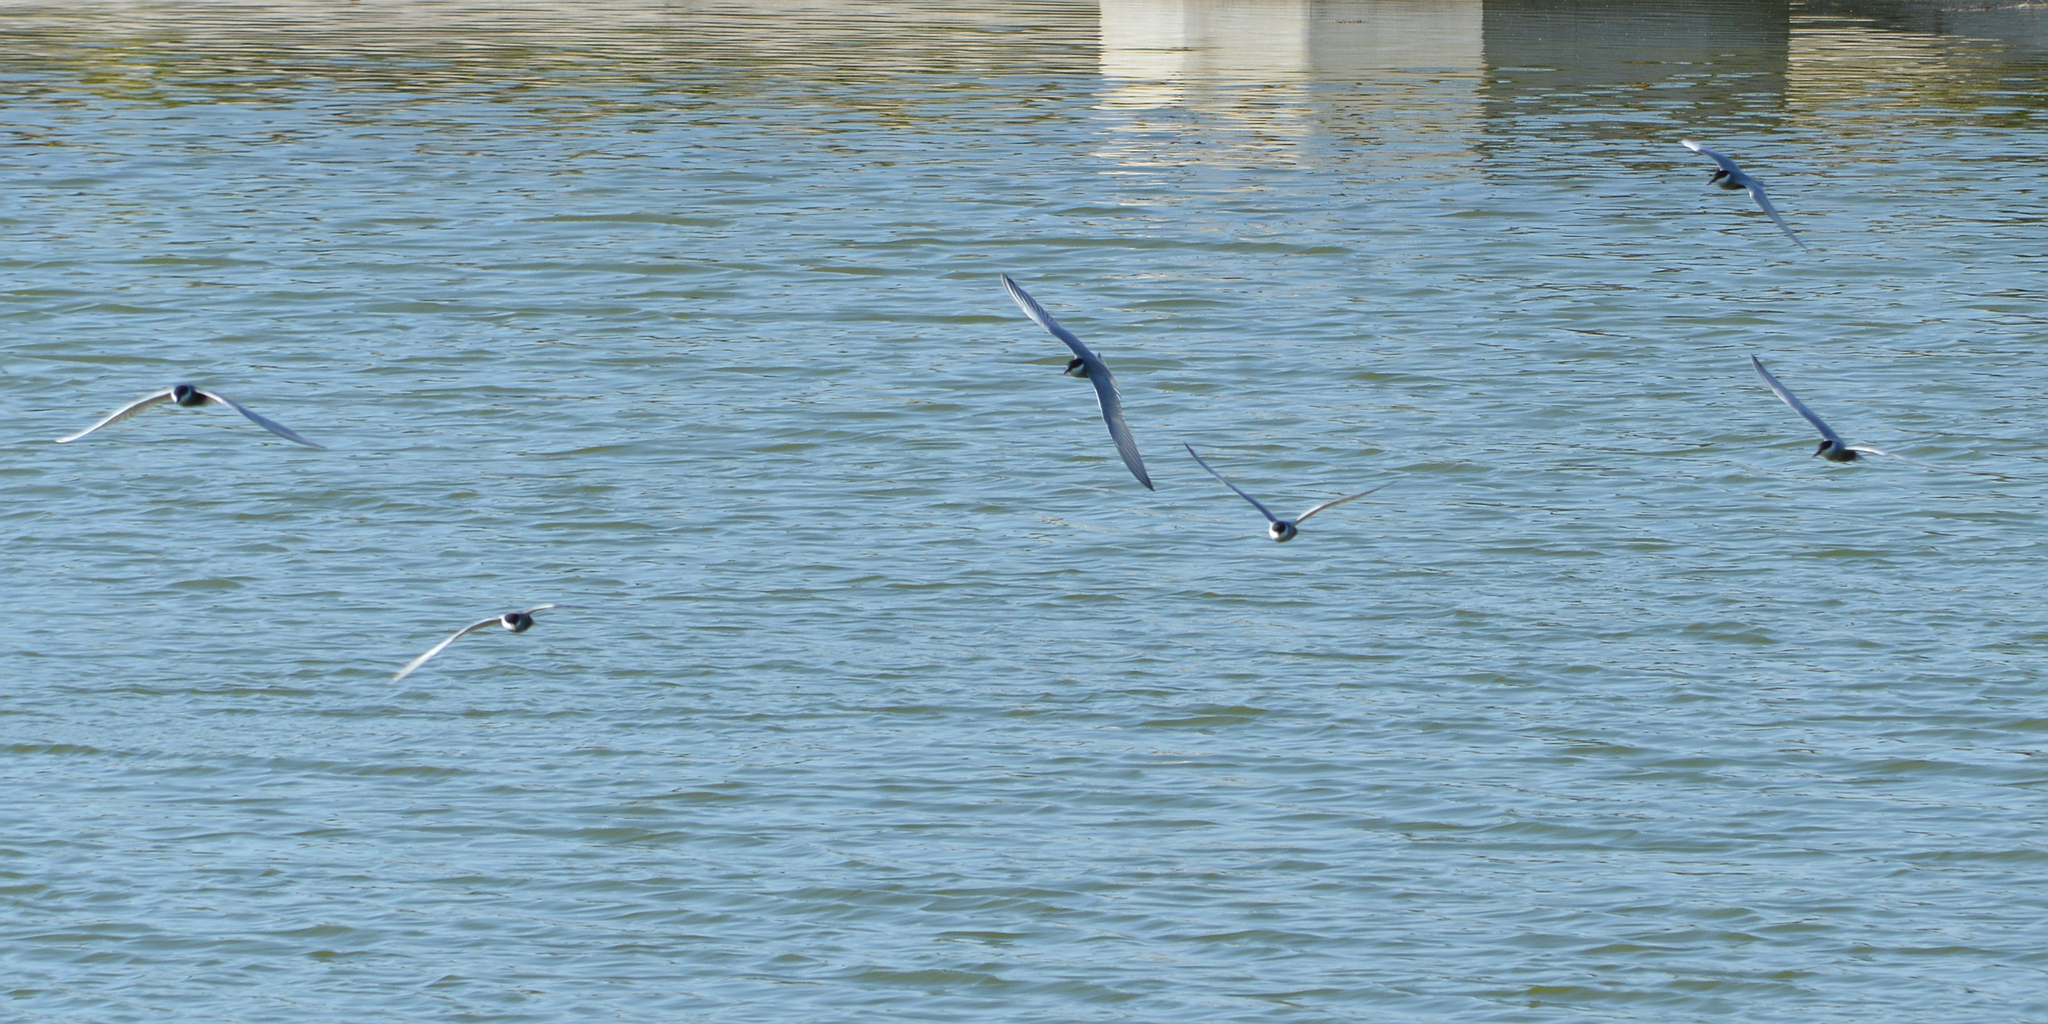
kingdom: Animalia
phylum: Chordata
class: Aves
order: Charadriiformes
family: Laridae
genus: Chlidonias
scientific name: Chlidonias hybrida
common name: Whiskered tern
